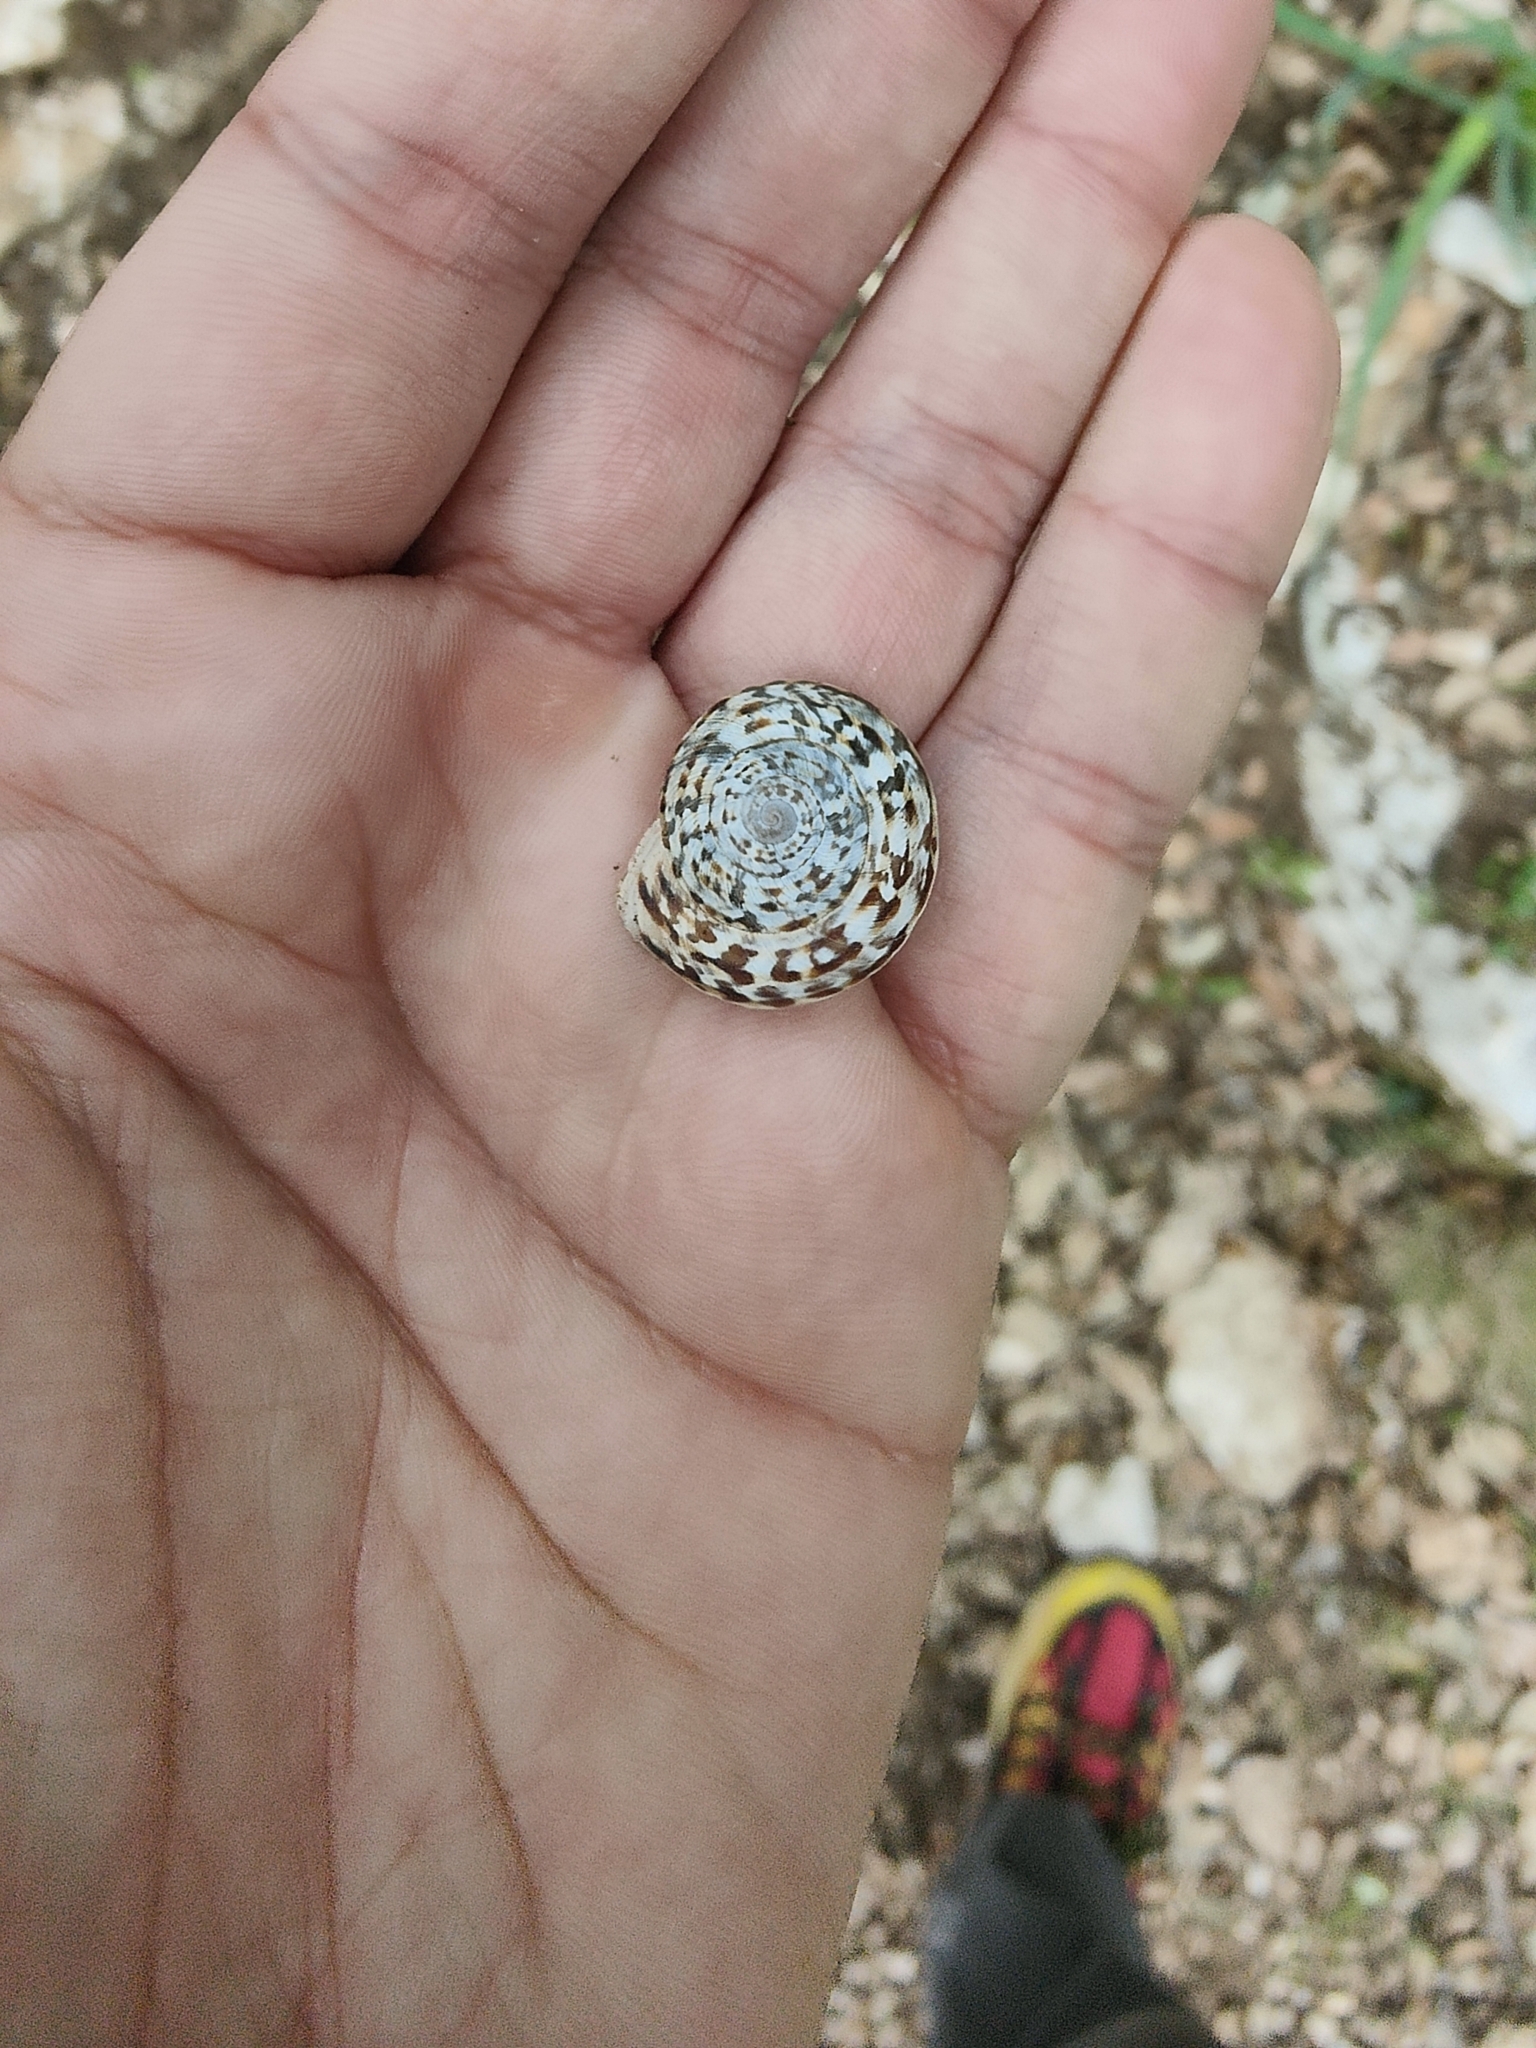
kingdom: Animalia
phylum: Mollusca
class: Gastropoda
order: Stylommatophora
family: Helicidae
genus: Marmorana
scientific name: Marmorana serpentina
